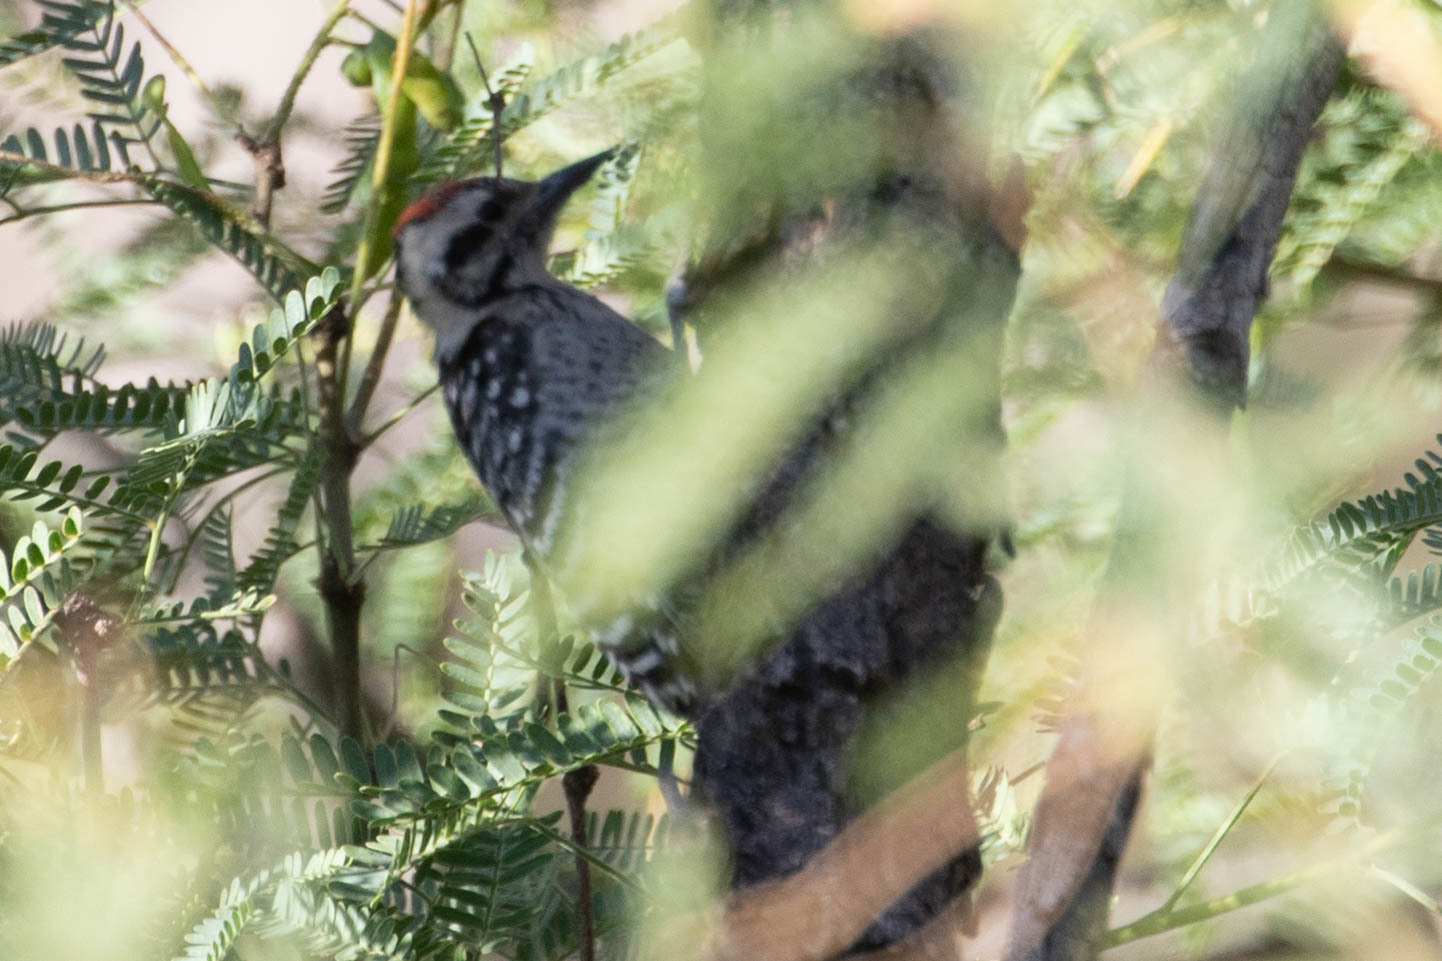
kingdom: Animalia
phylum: Chordata
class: Aves
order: Piciformes
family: Picidae
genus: Dryobates
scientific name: Dryobates scalaris
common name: Ladder-backed woodpecker
